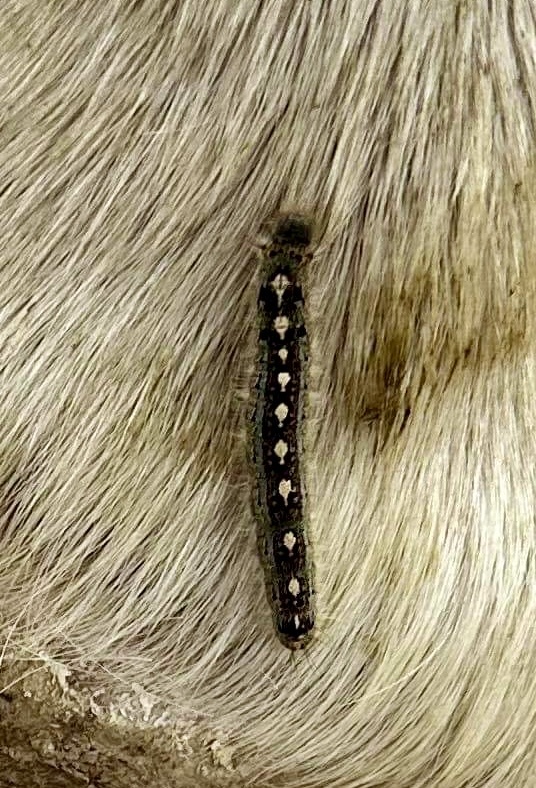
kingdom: Animalia
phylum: Arthropoda
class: Insecta
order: Lepidoptera
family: Lasiocampidae
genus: Malacosoma
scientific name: Malacosoma disstria
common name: Forest tent caterpillar
